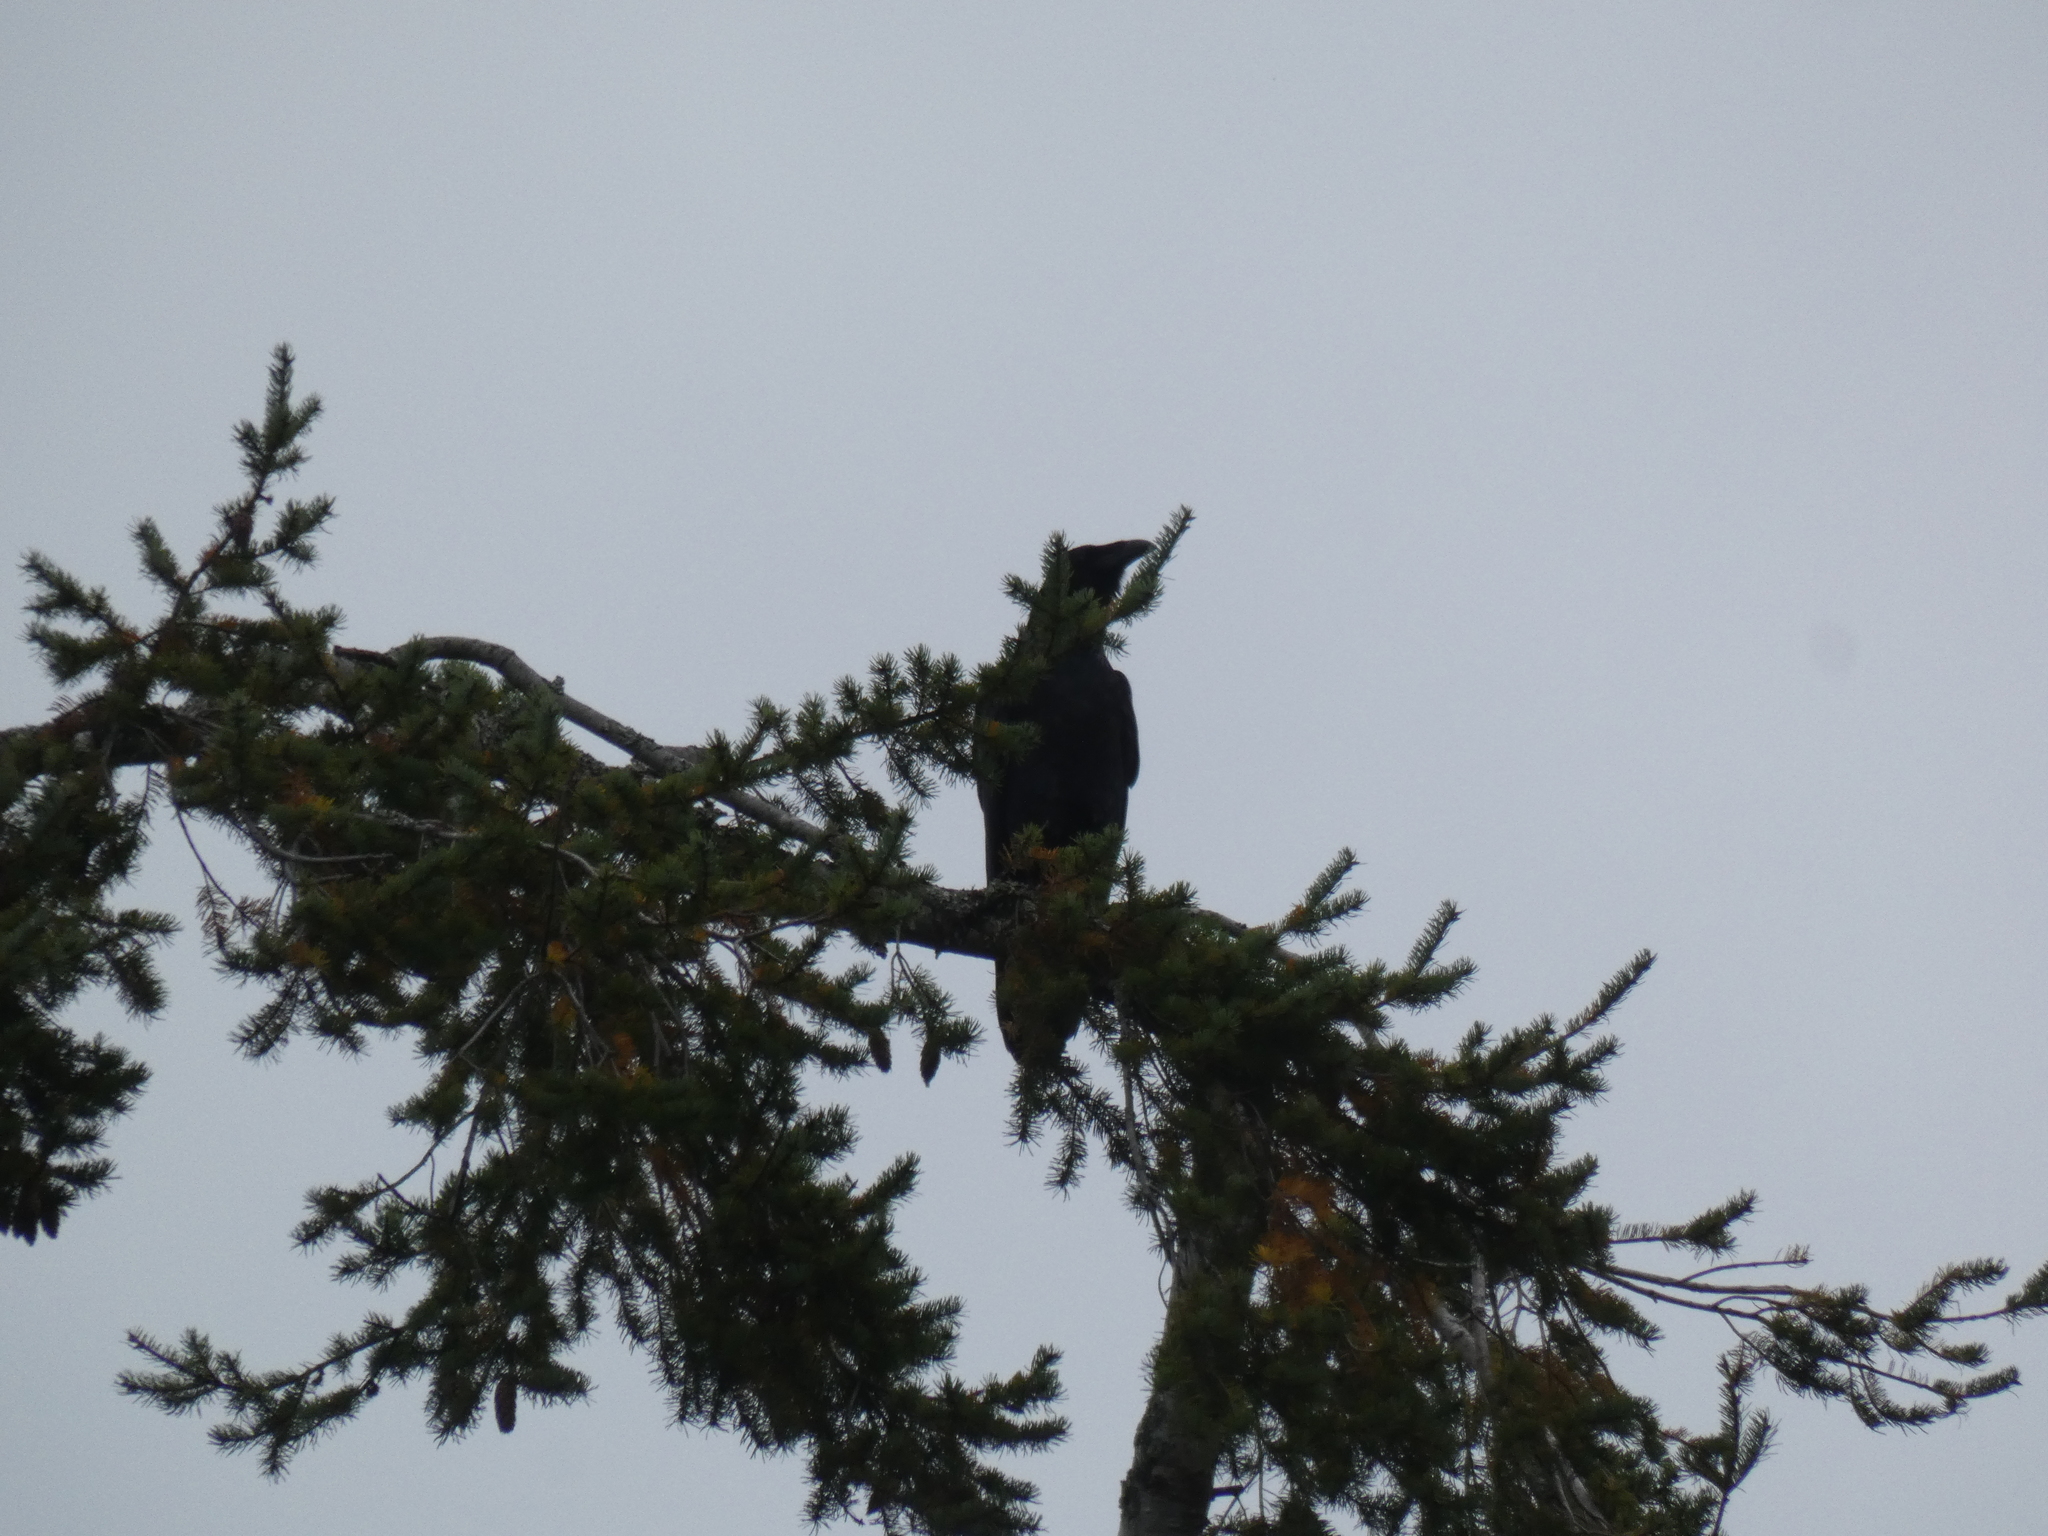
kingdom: Animalia
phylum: Chordata
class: Aves
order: Passeriformes
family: Corvidae
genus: Corvus
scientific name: Corvus corax
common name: Common raven
